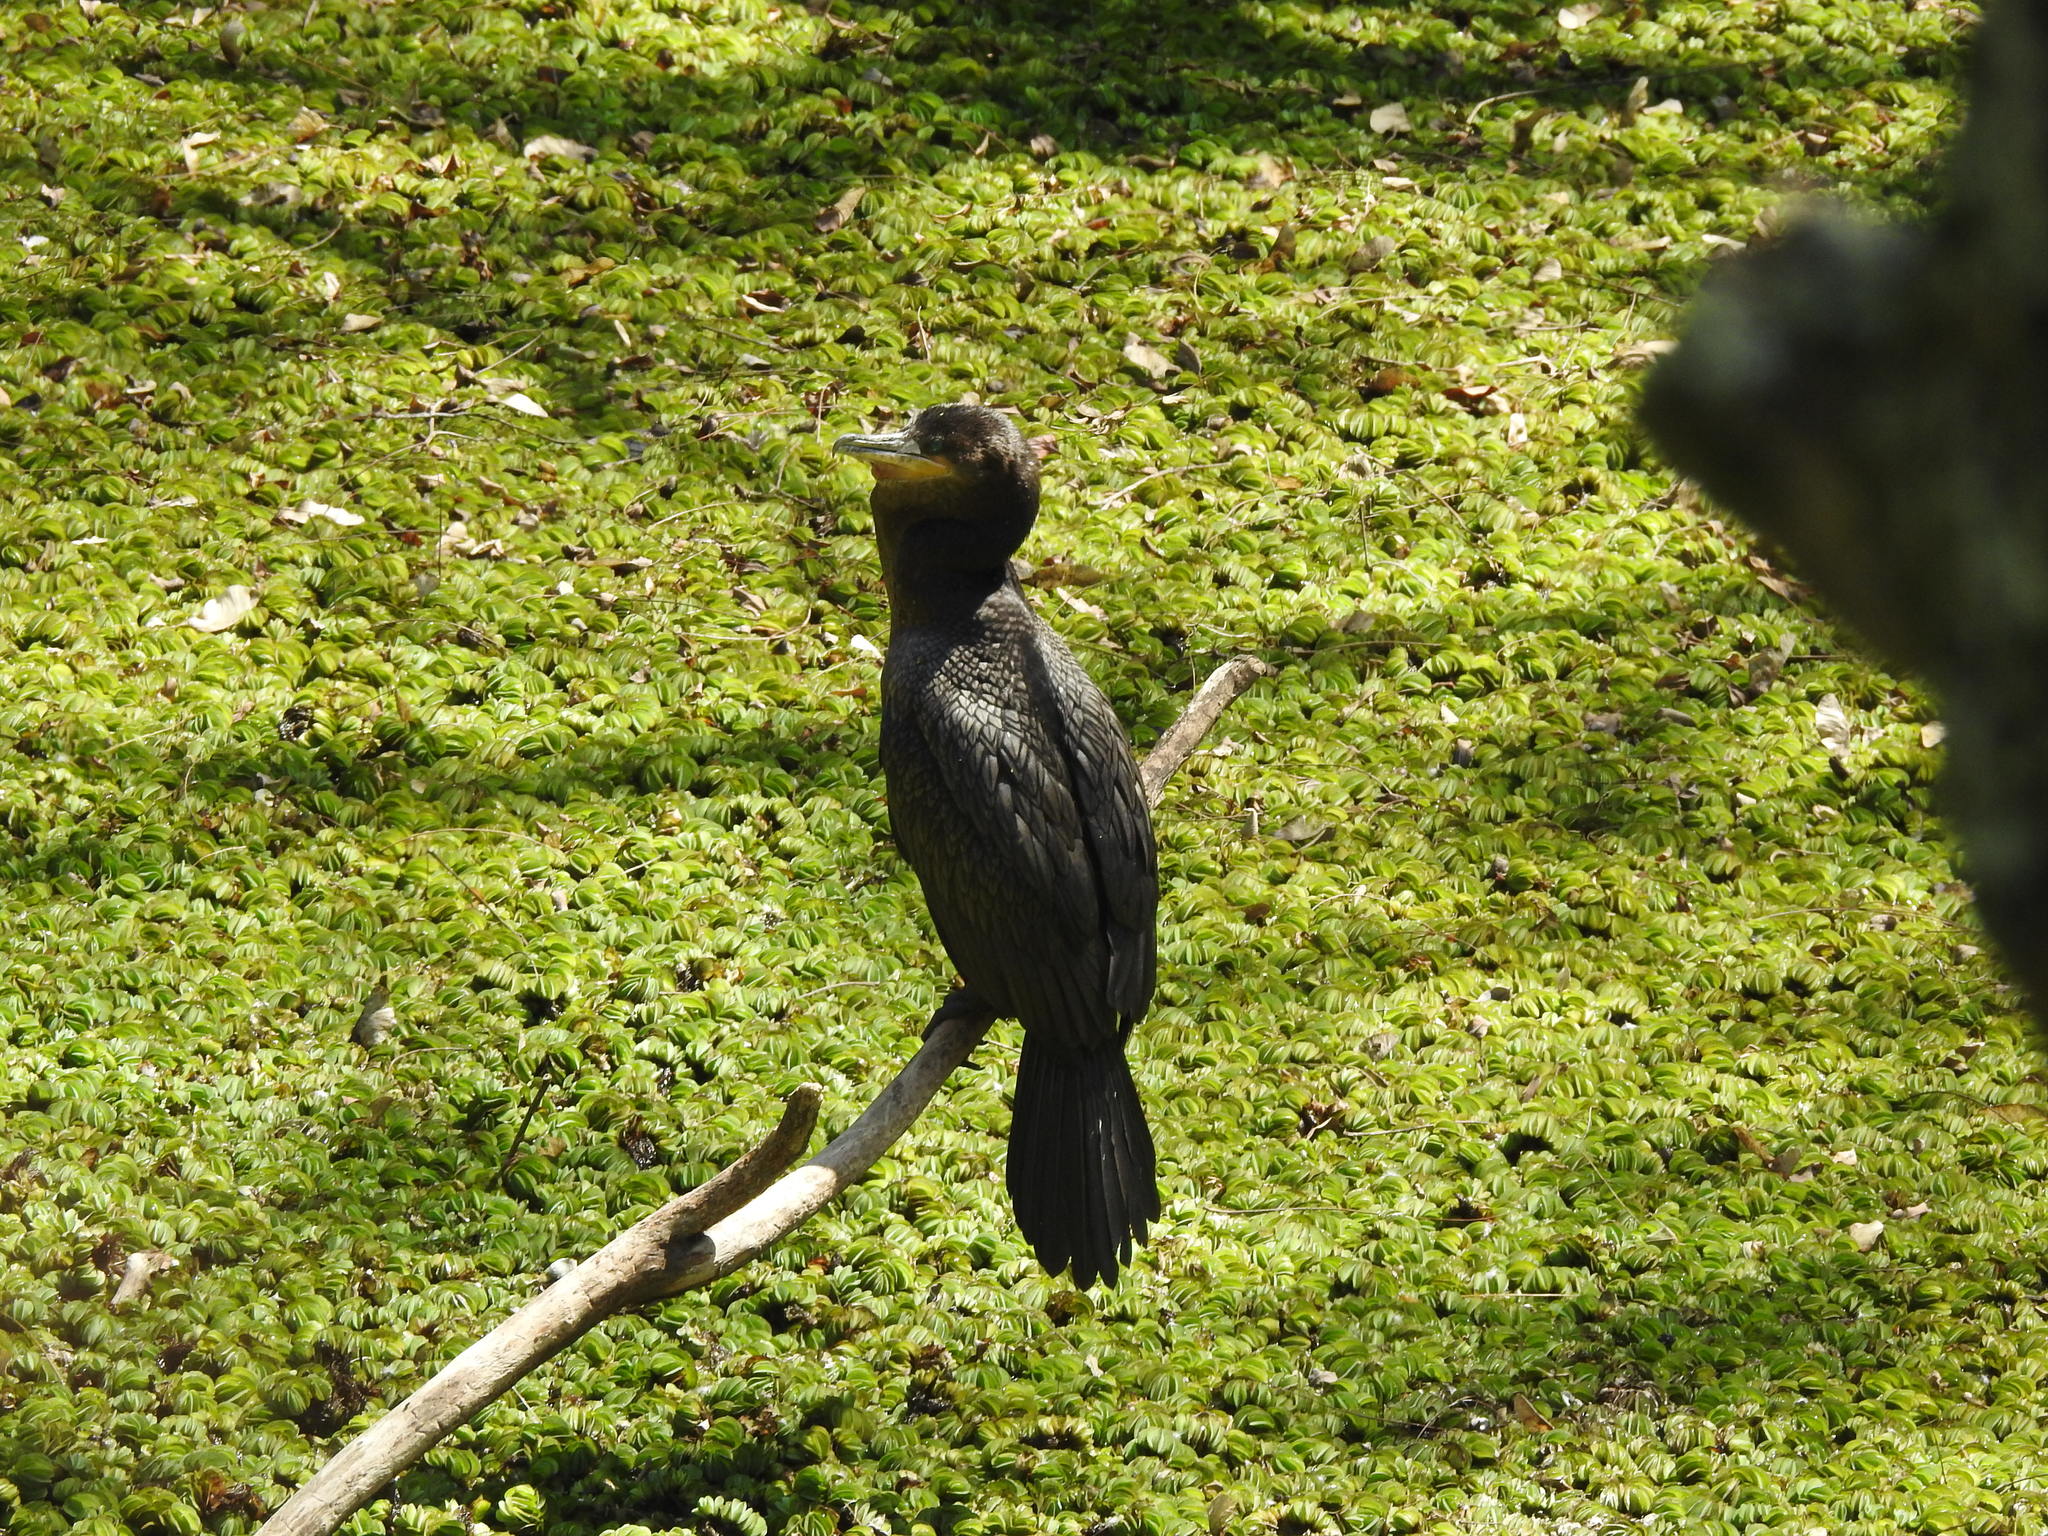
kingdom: Animalia
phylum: Chordata
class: Aves
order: Suliformes
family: Phalacrocoracidae
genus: Phalacrocorax
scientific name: Phalacrocorax brasilianus
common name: Neotropic cormorant
